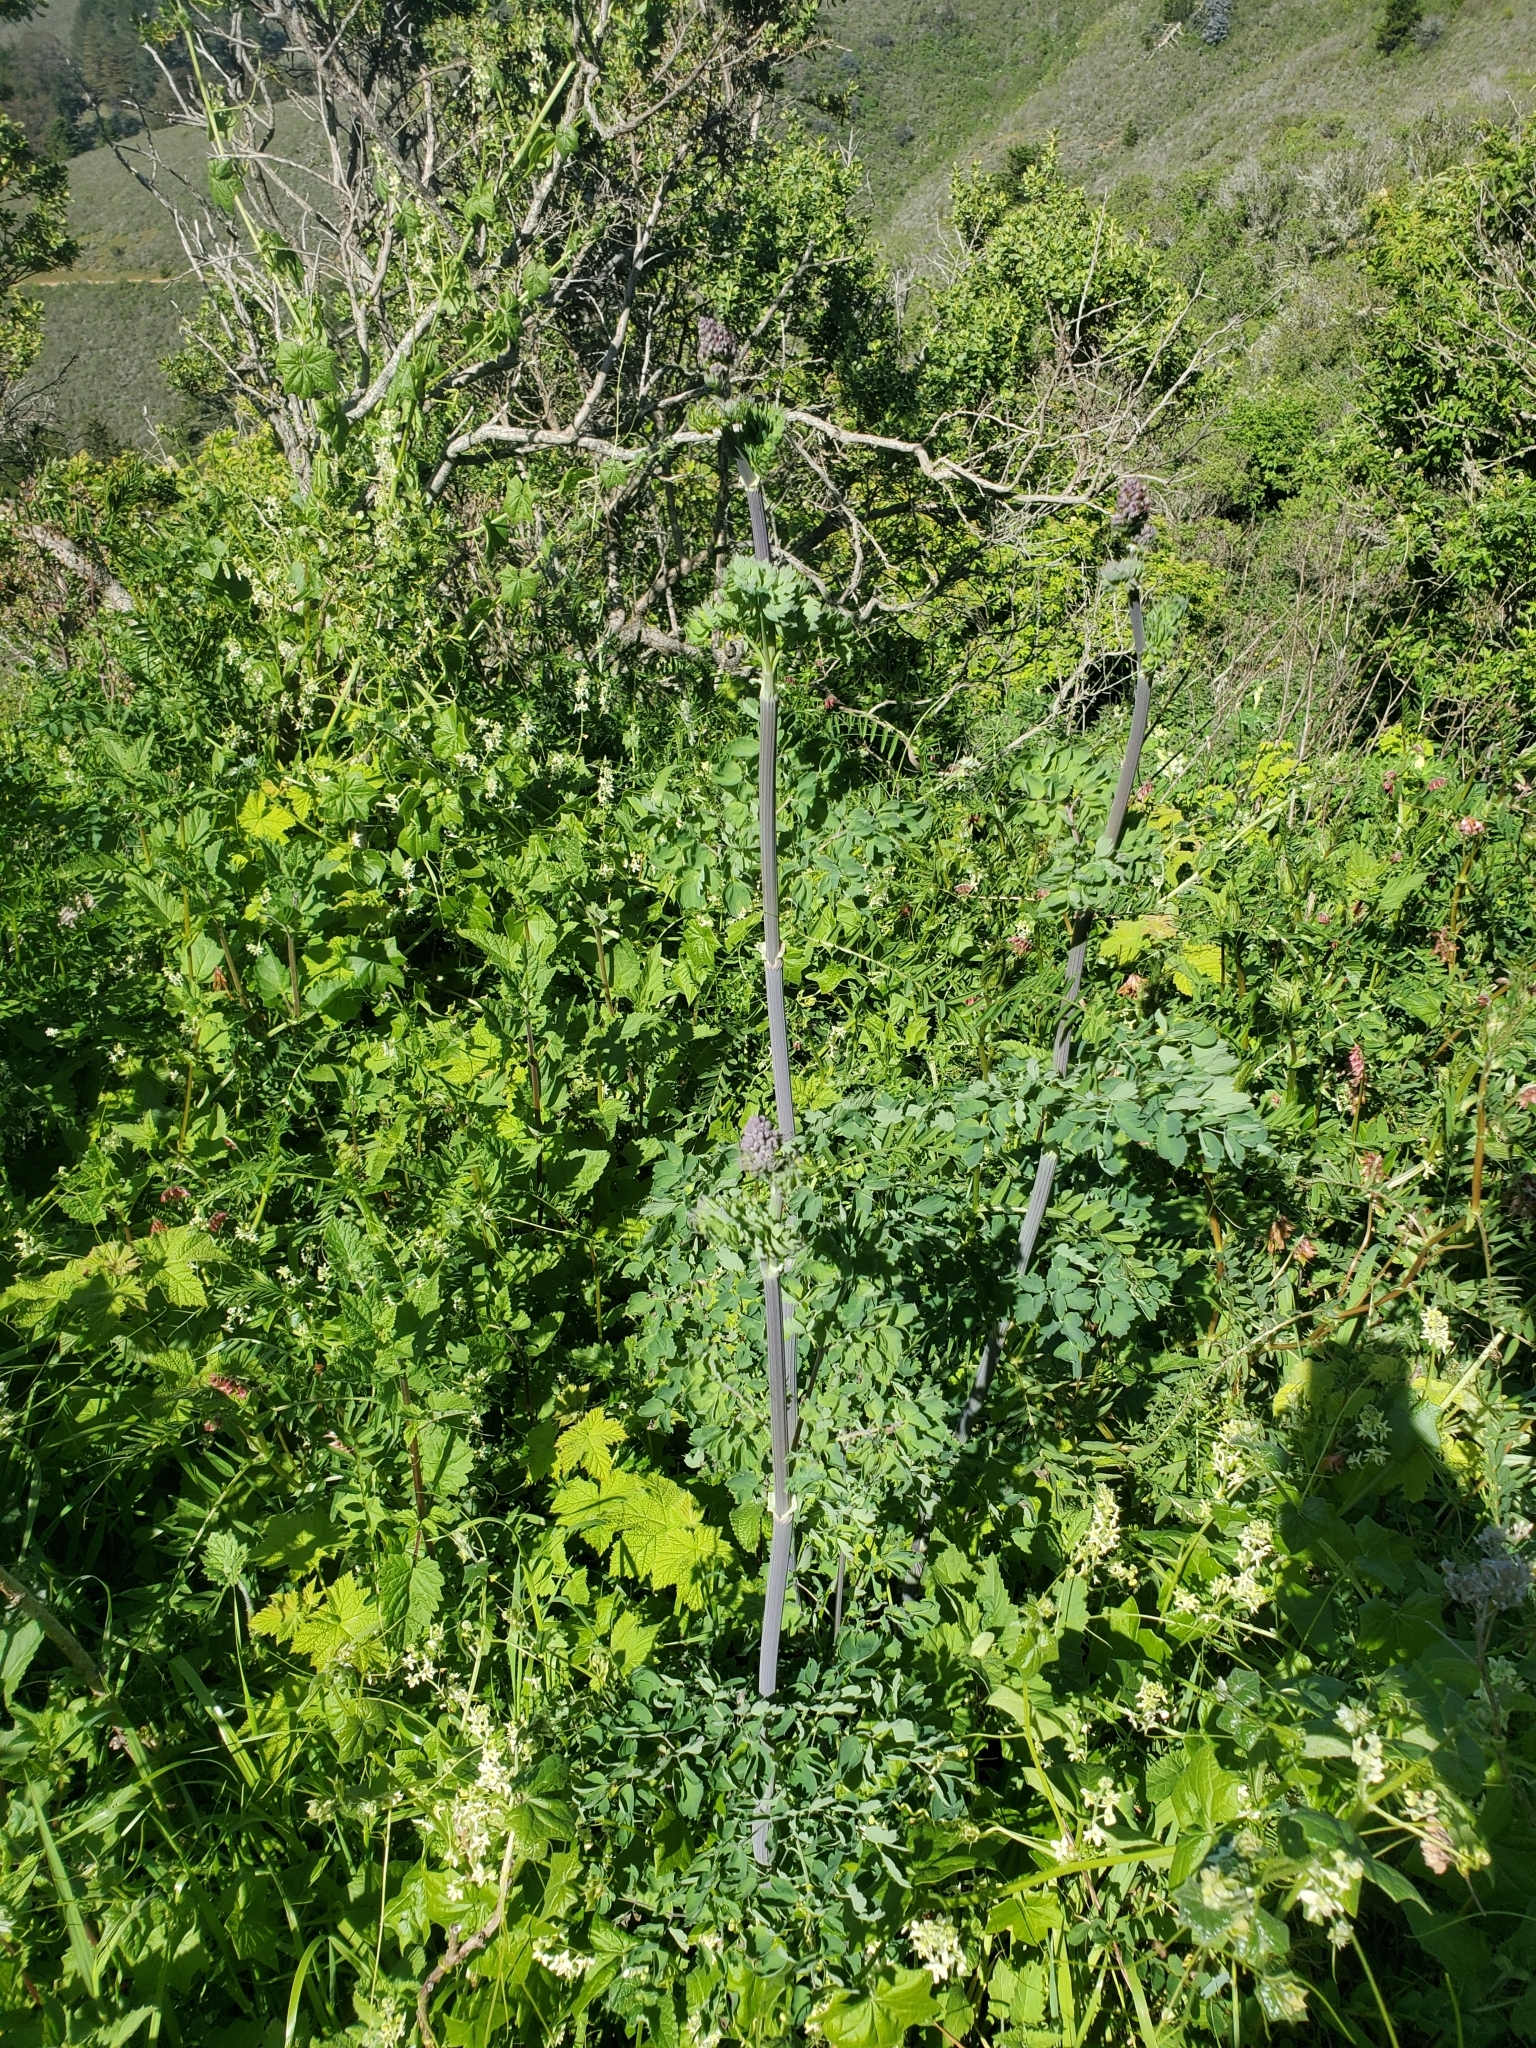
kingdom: Plantae
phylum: Tracheophyta
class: Magnoliopsida
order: Ranunculales
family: Ranunculaceae
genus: Thalictrum
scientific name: Thalictrum fendleri
